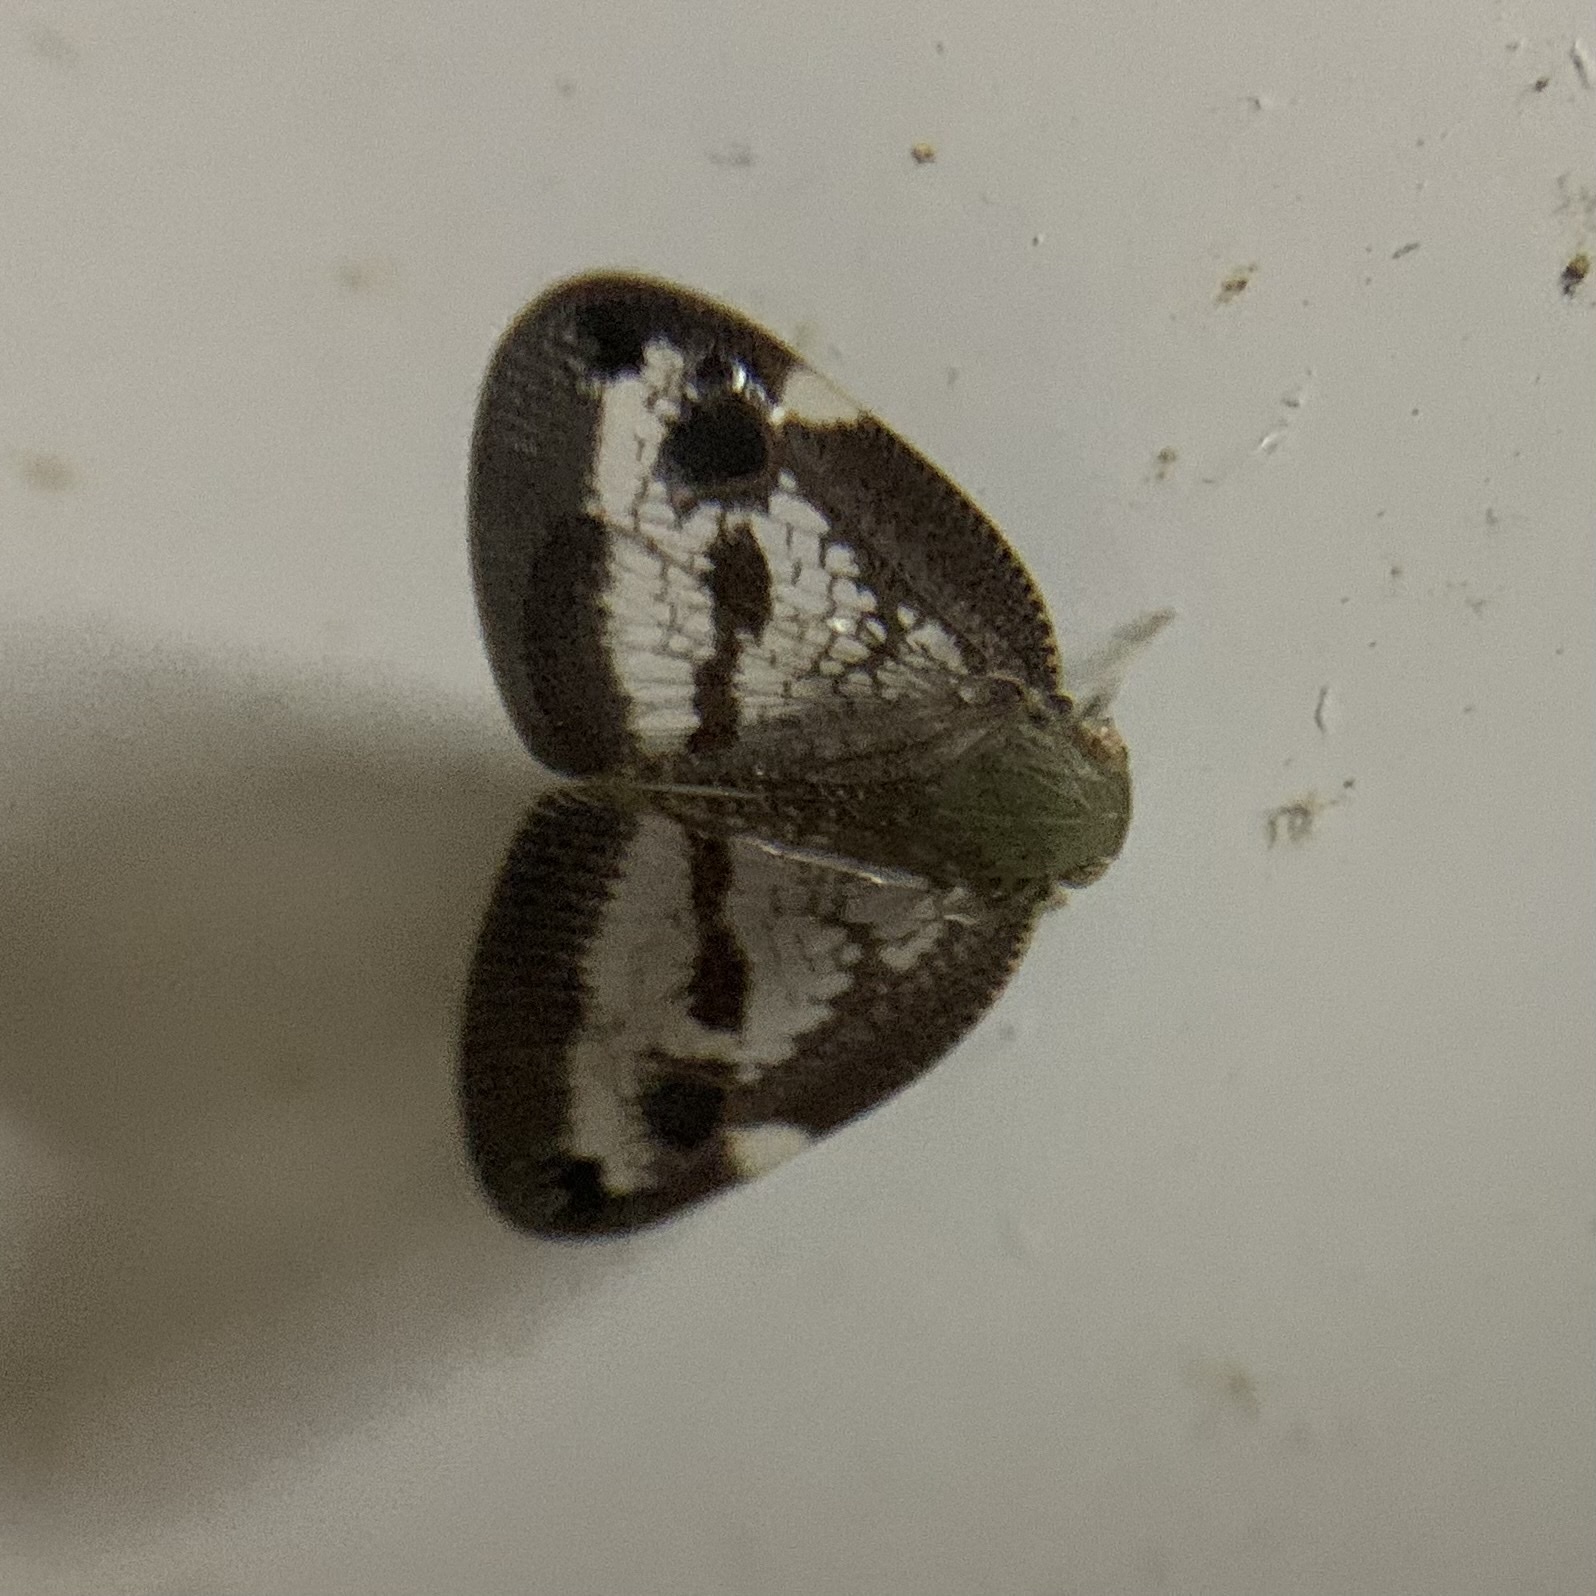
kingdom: Animalia
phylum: Arthropoda
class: Insecta
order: Hemiptera
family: Ricaniidae
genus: Parapiromis
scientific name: Parapiromis translucida
